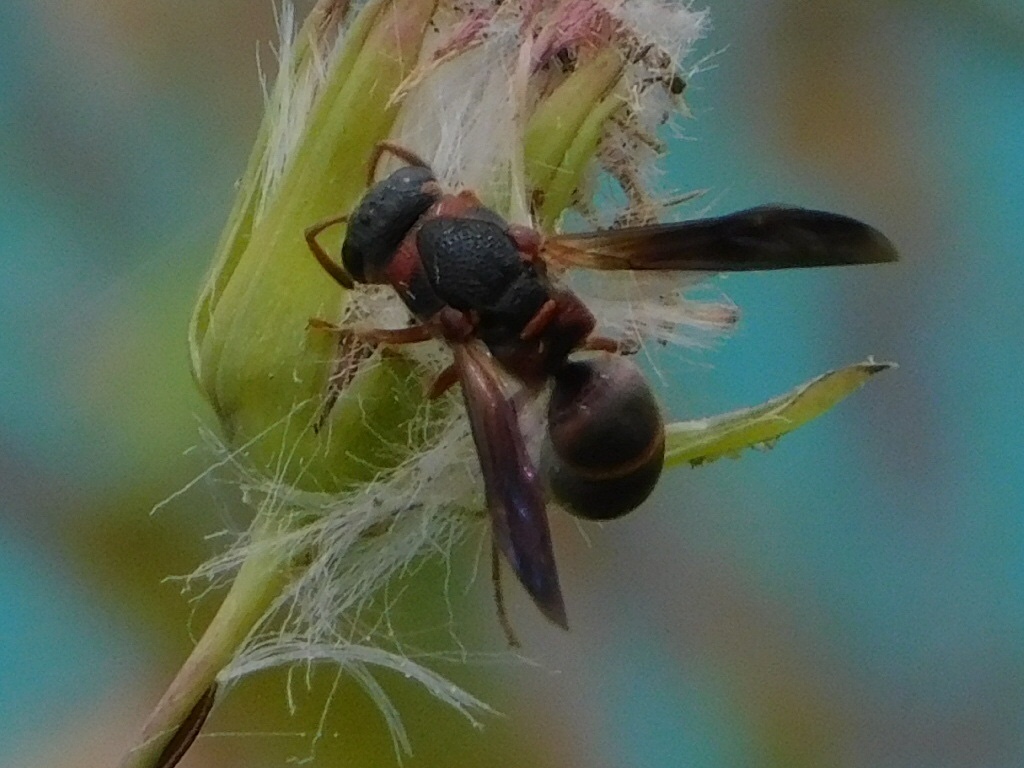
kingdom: Animalia
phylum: Arthropoda
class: Insecta
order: Hymenoptera
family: Eumenidae
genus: Parancistrocerus
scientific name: Parancistrocerus fulvipes
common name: Potter wasp
